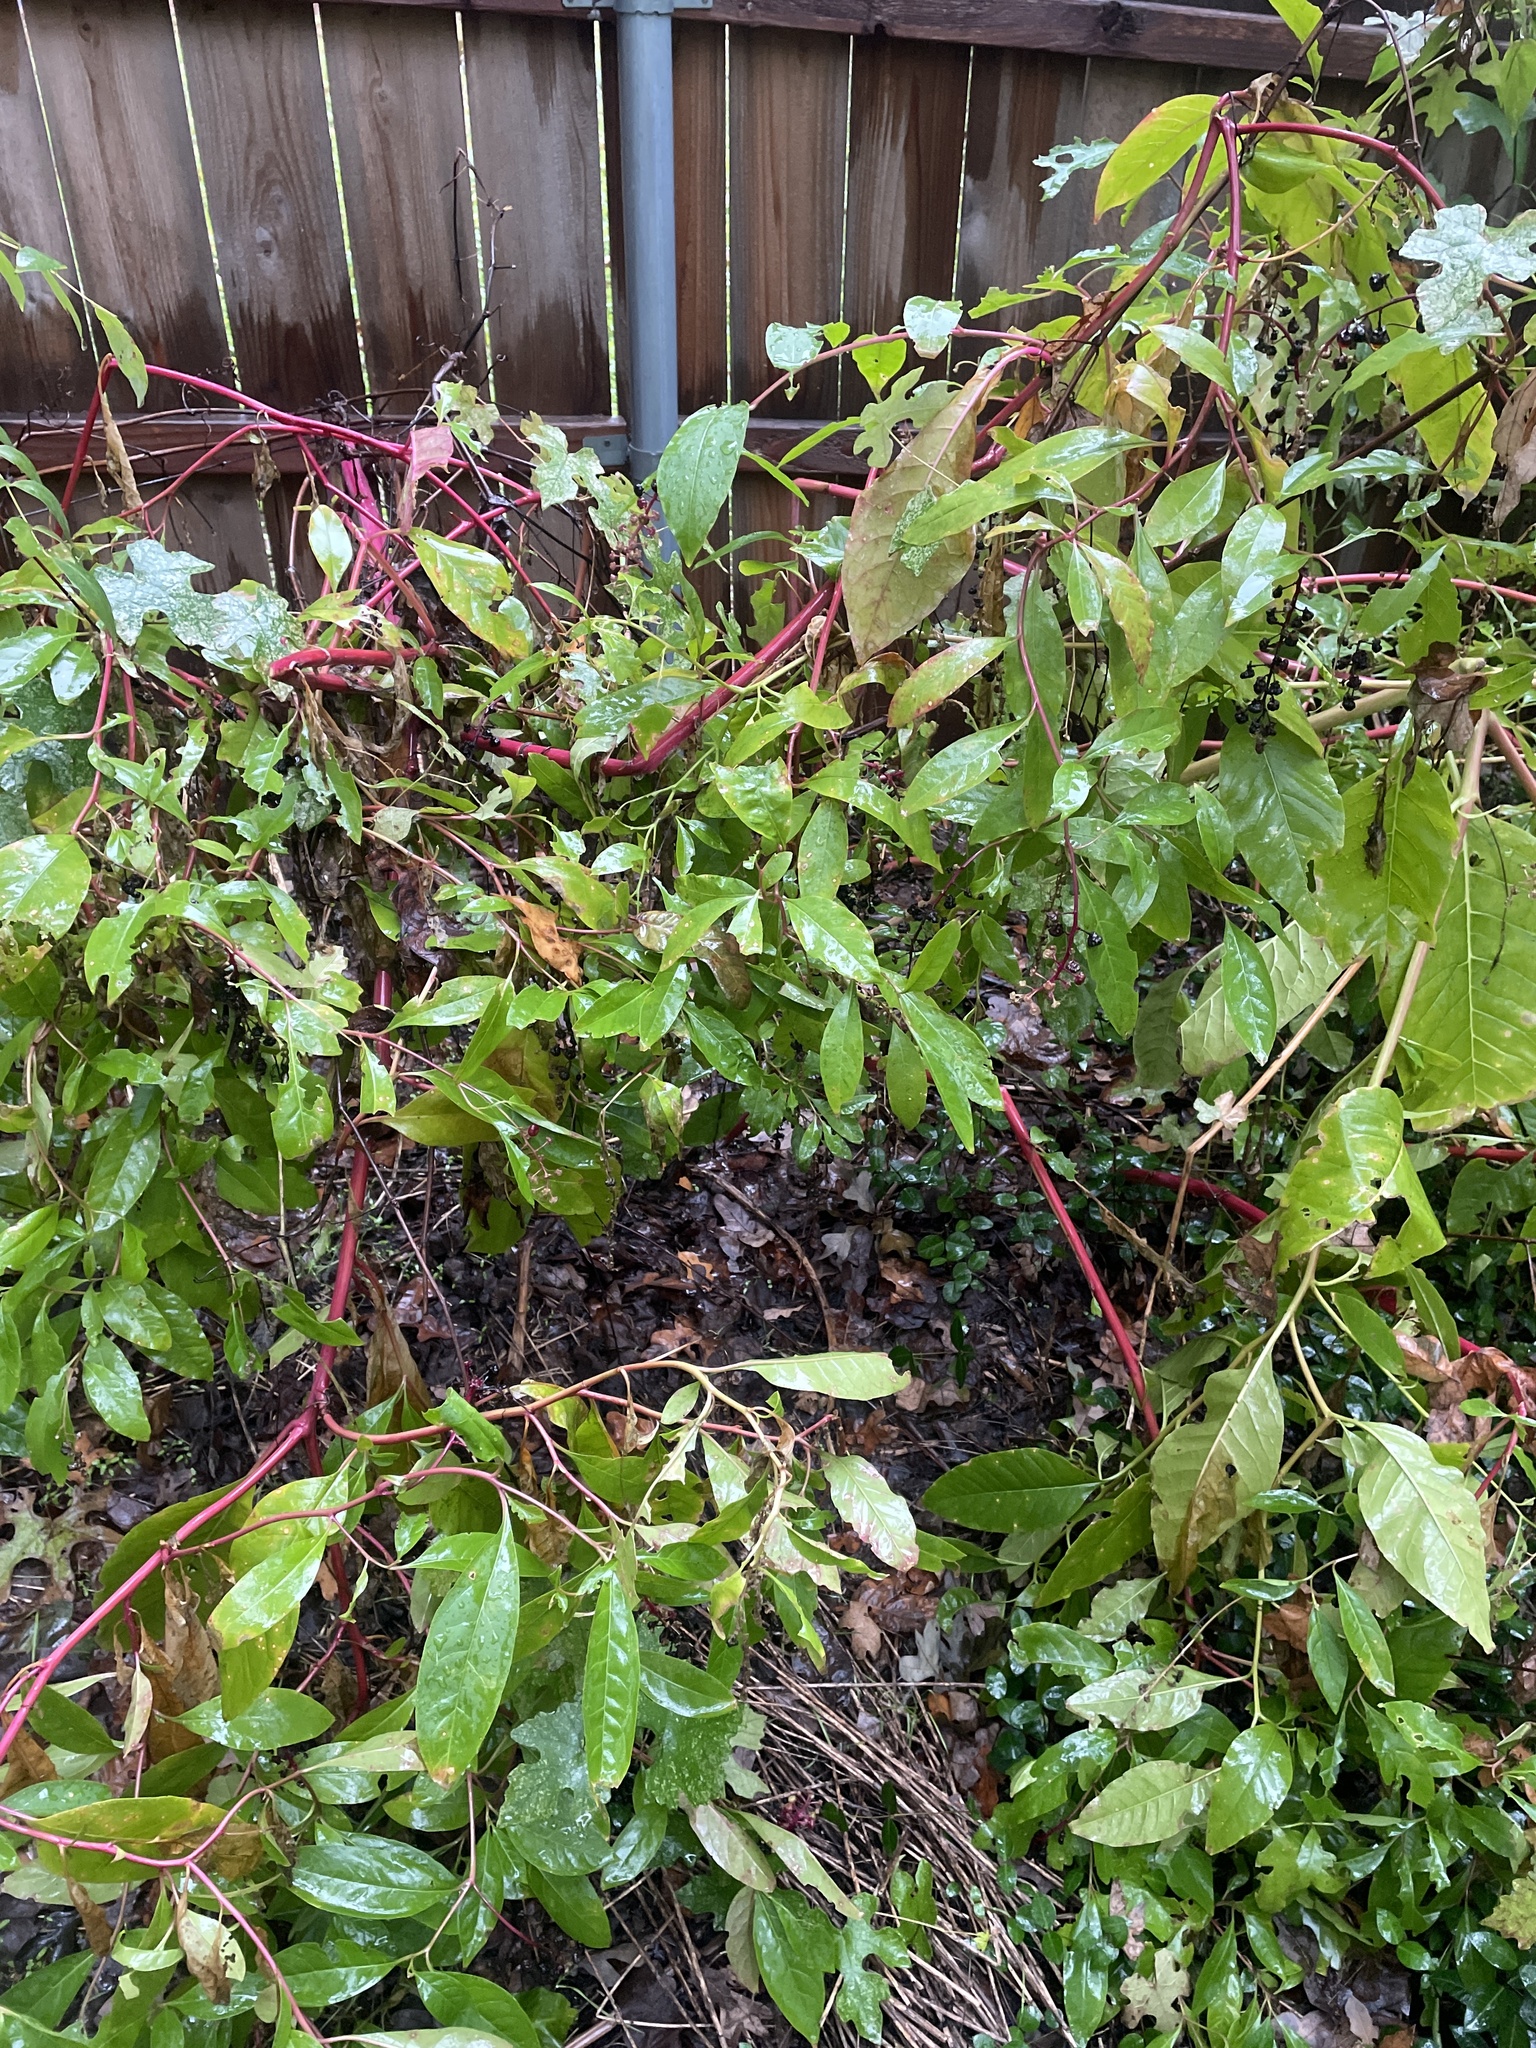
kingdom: Plantae
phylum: Tracheophyta
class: Magnoliopsida
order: Caryophyllales
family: Phytolaccaceae
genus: Phytolacca
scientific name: Phytolacca americana
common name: American pokeweed
